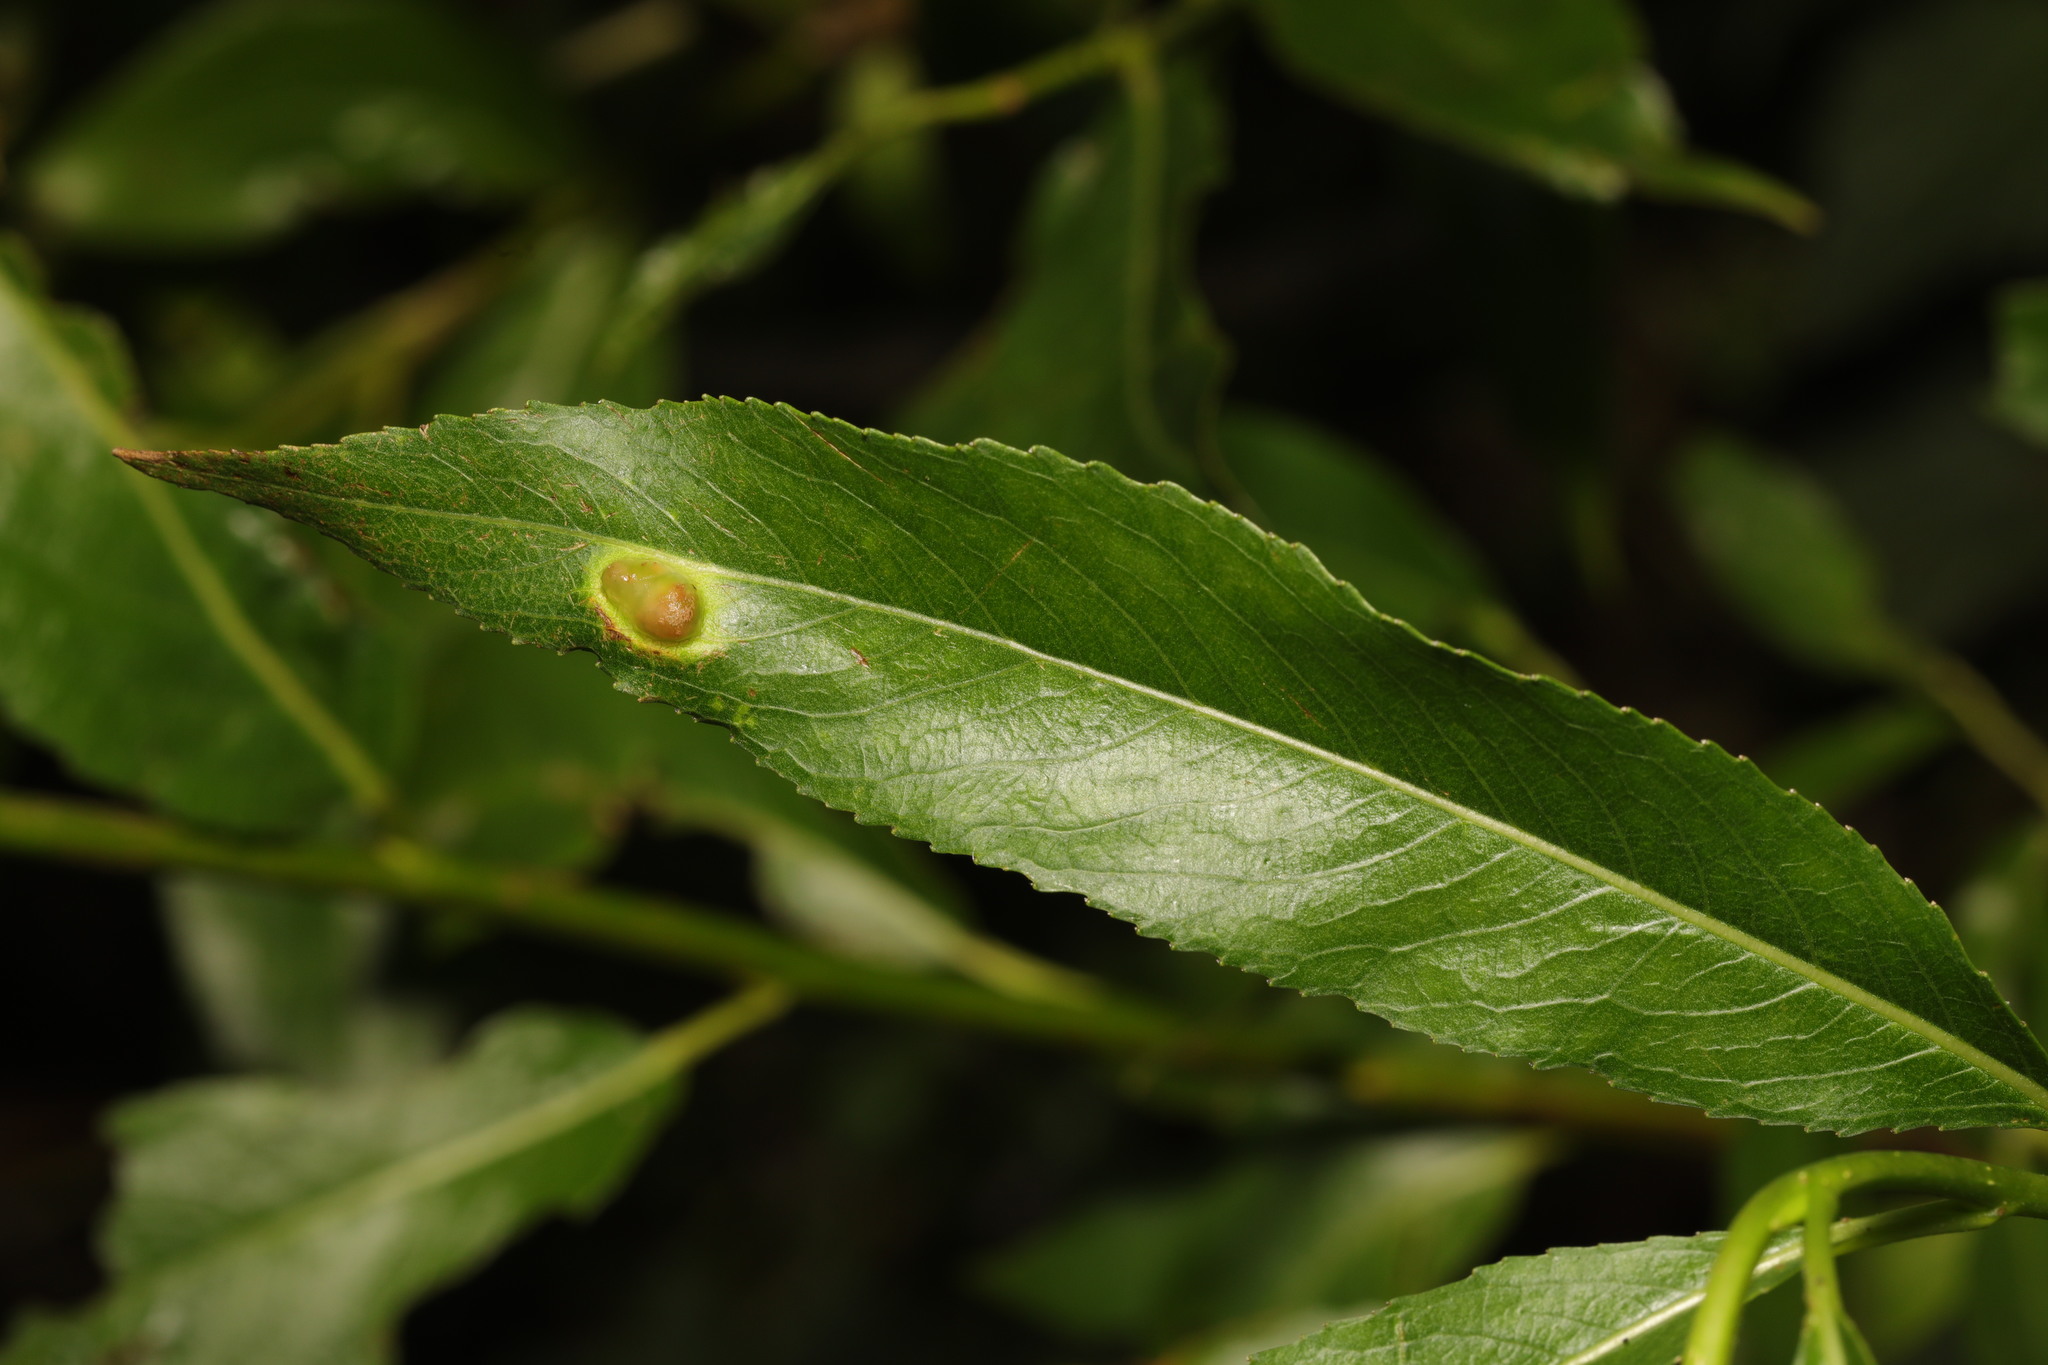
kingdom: Animalia
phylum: Arthropoda
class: Insecta
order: Hymenoptera
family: Tenthredinidae
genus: Pontania
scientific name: Pontania proxima
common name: Common sawfly
